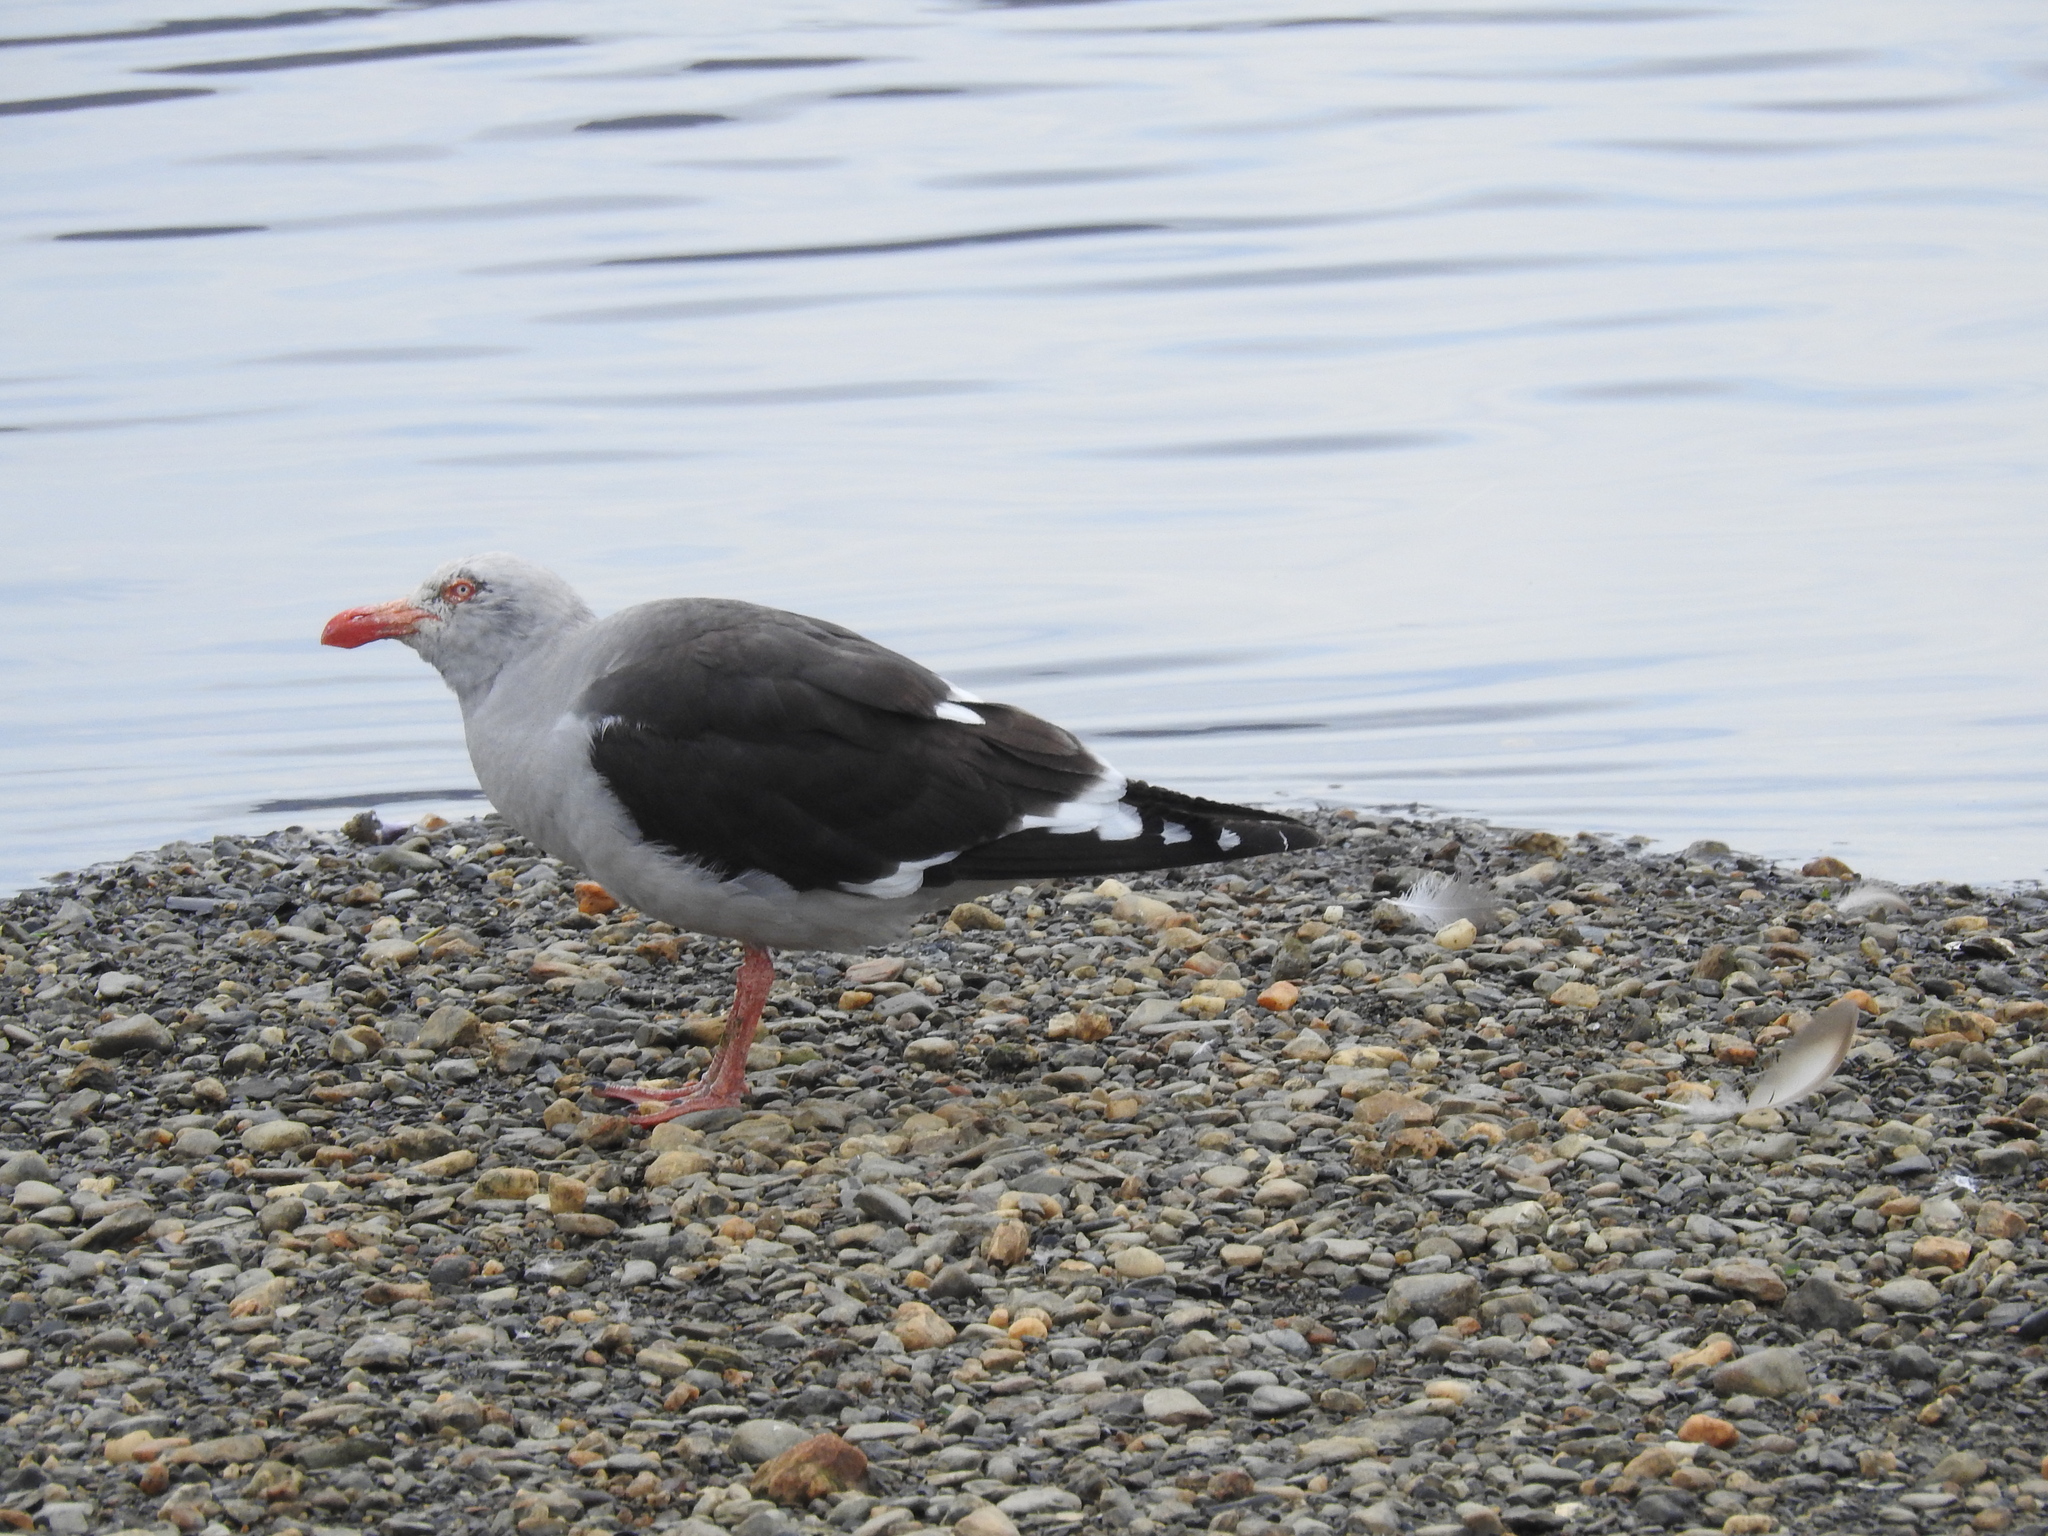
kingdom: Animalia
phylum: Chordata
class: Aves
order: Charadriiformes
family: Laridae
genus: Leucophaeus
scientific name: Leucophaeus scoresbii
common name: Dolphin gull
